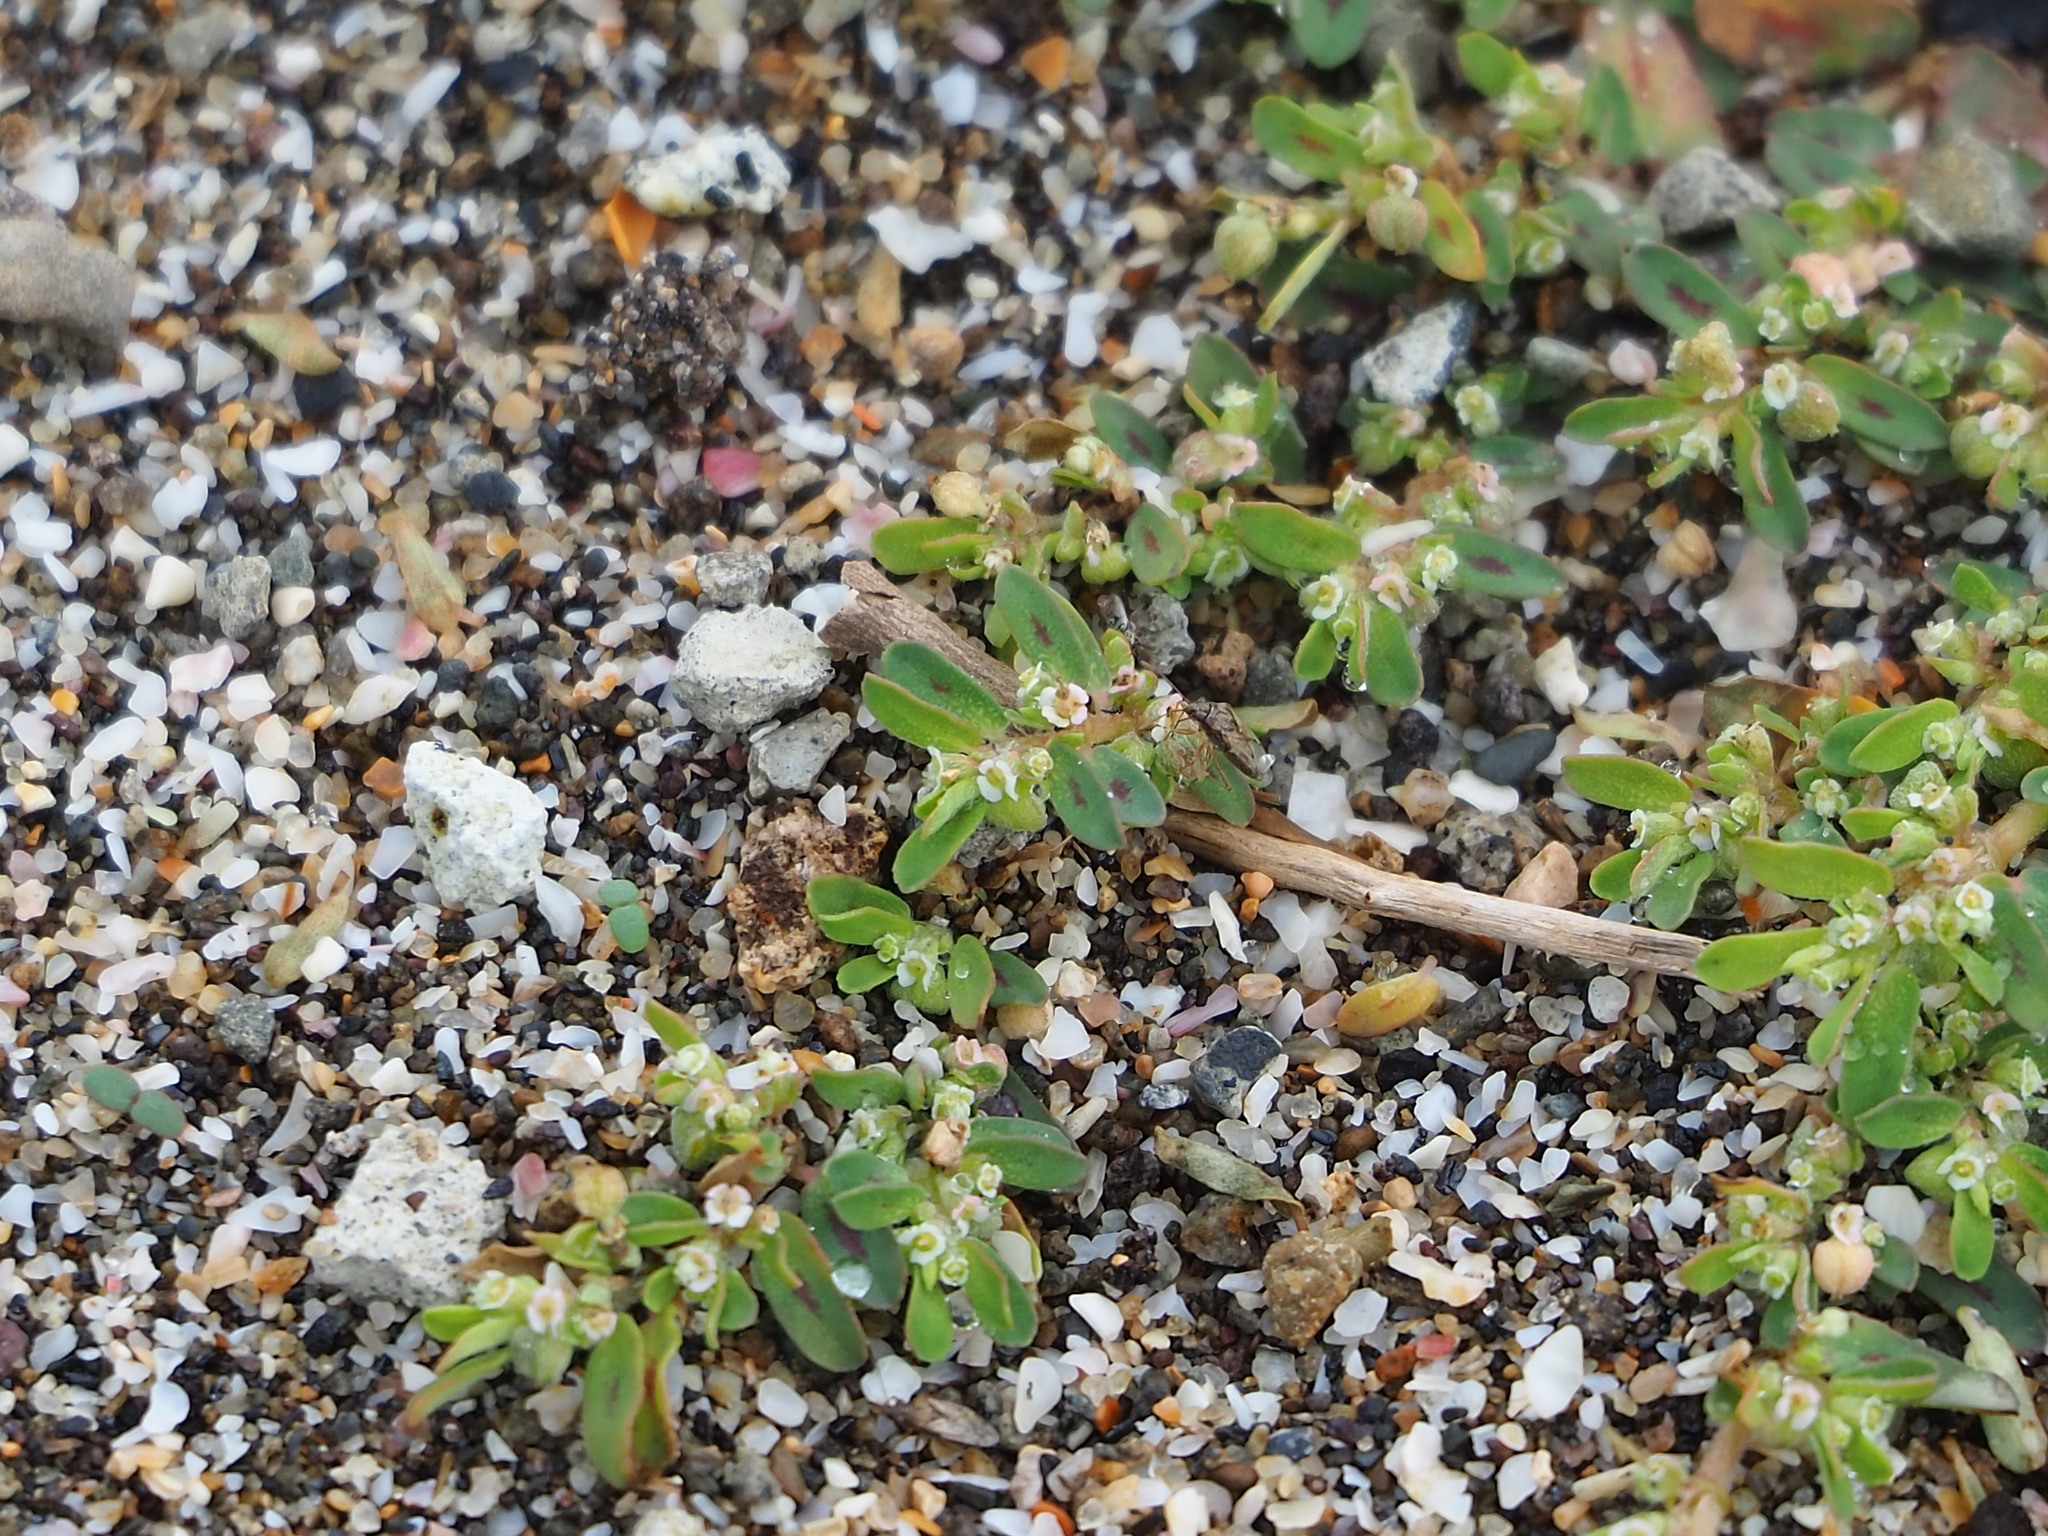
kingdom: Plantae
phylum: Tracheophyta
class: Magnoliopsida
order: Malpighiales
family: Euphorbiaceae
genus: Euphorbia
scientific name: Euphorbia maculata
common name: Spotted spurge
